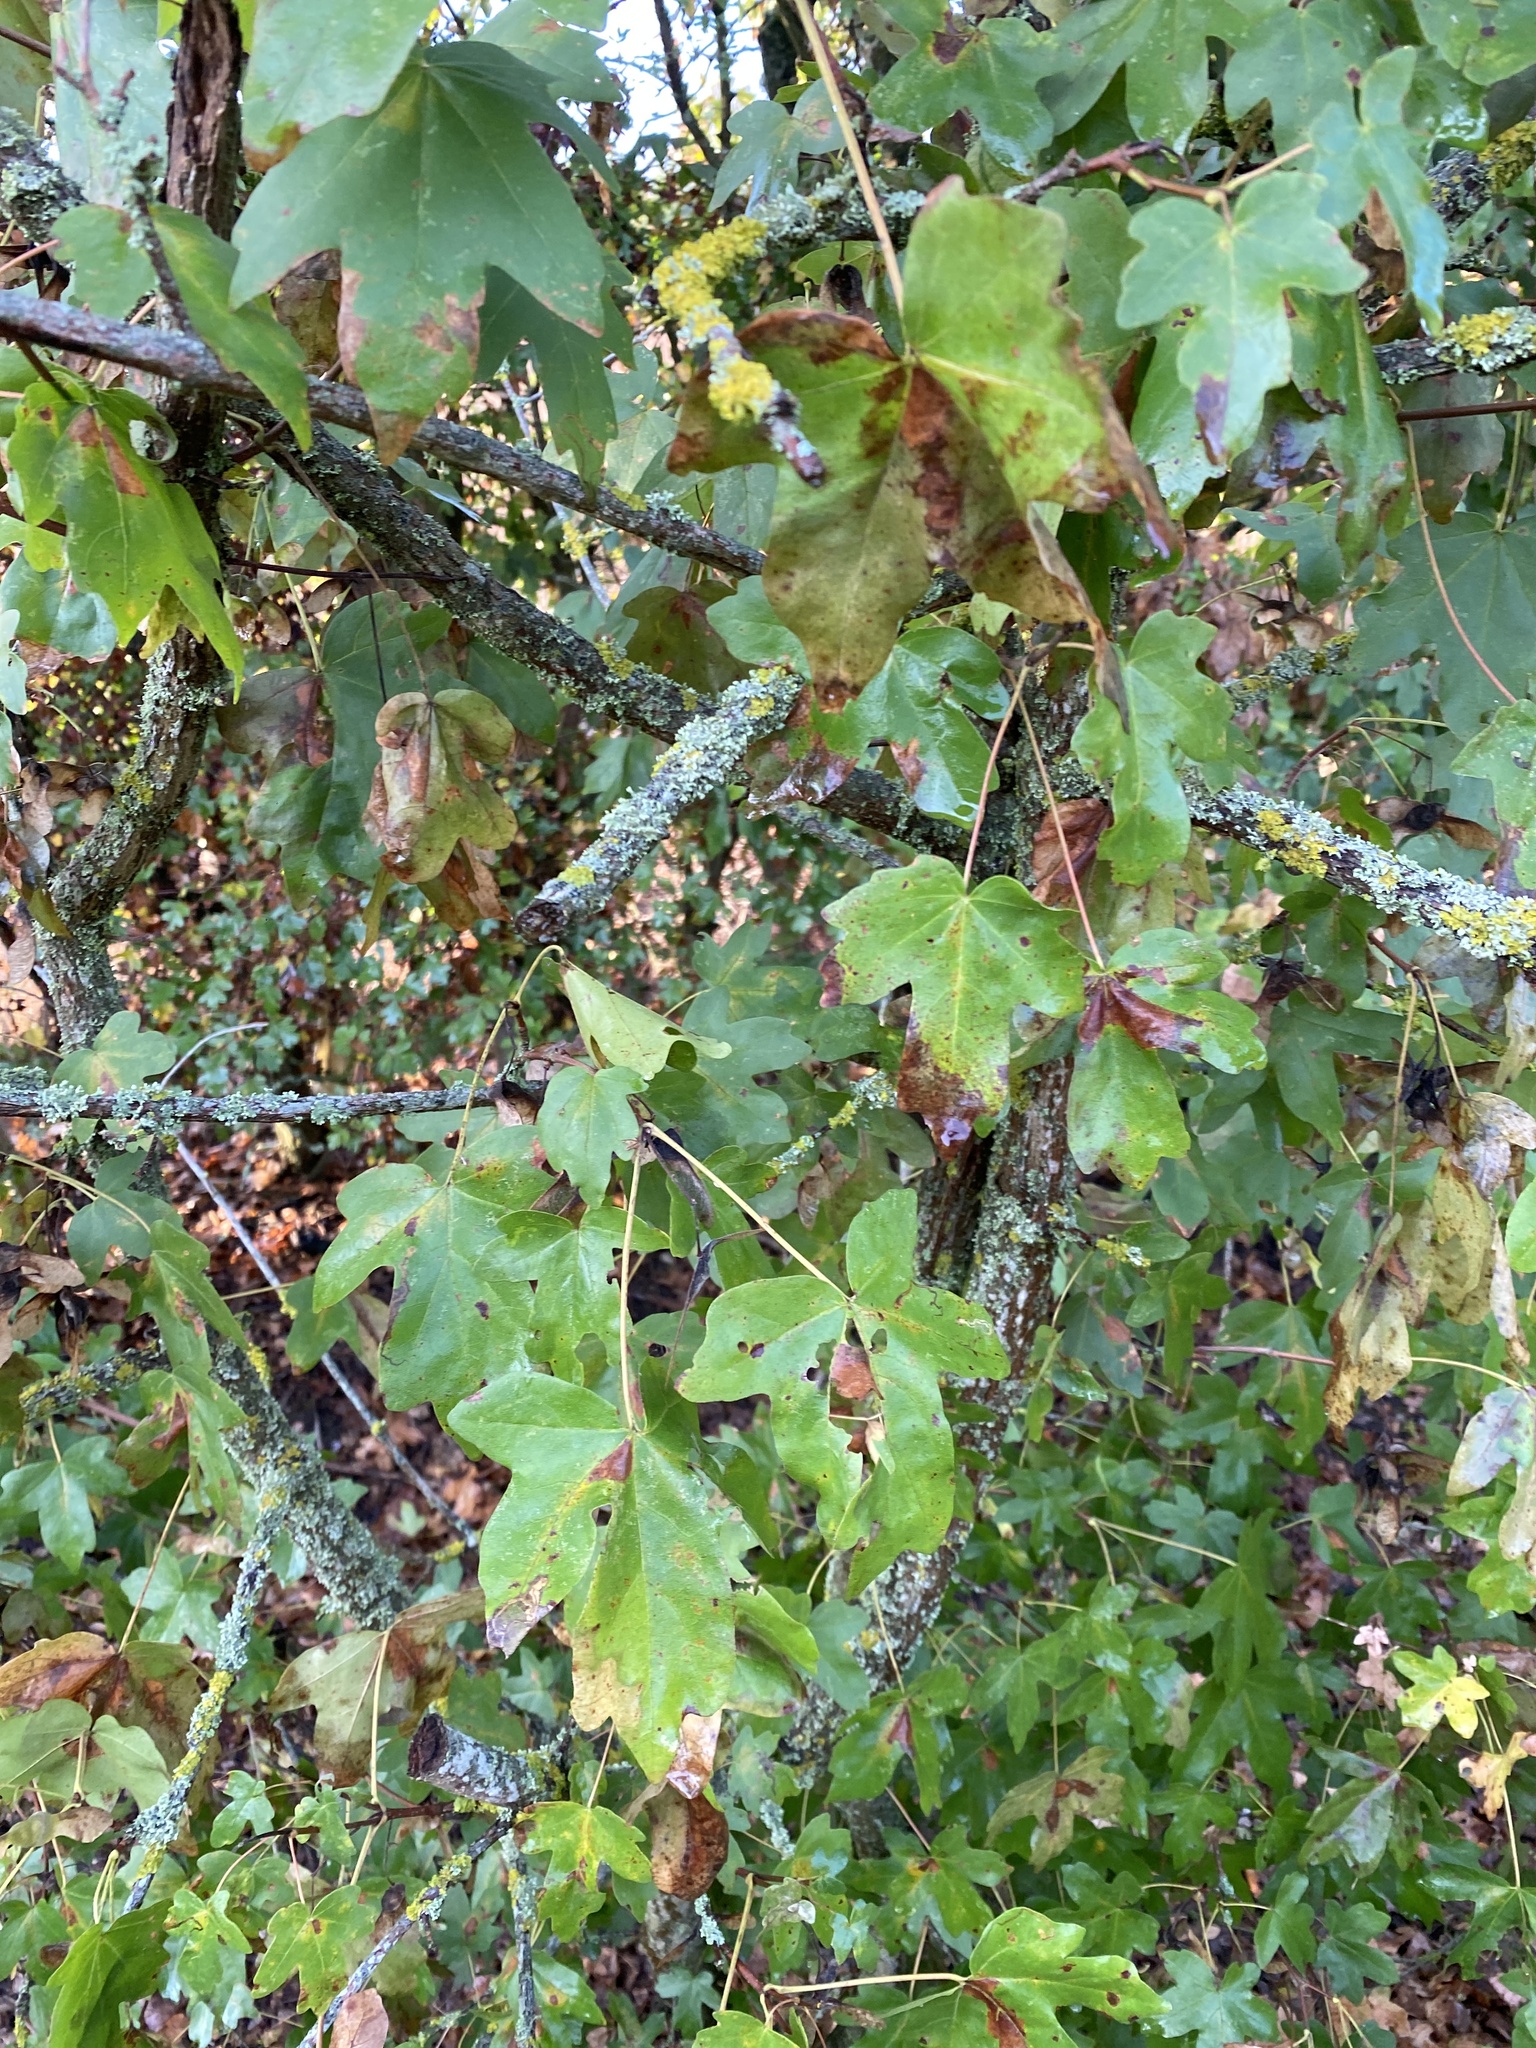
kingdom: Plantae
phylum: Tracheophyta
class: Magnoliopsida
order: Sapindales
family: Sapindaceae
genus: Acer
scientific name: Acer campestre
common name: Field maple
